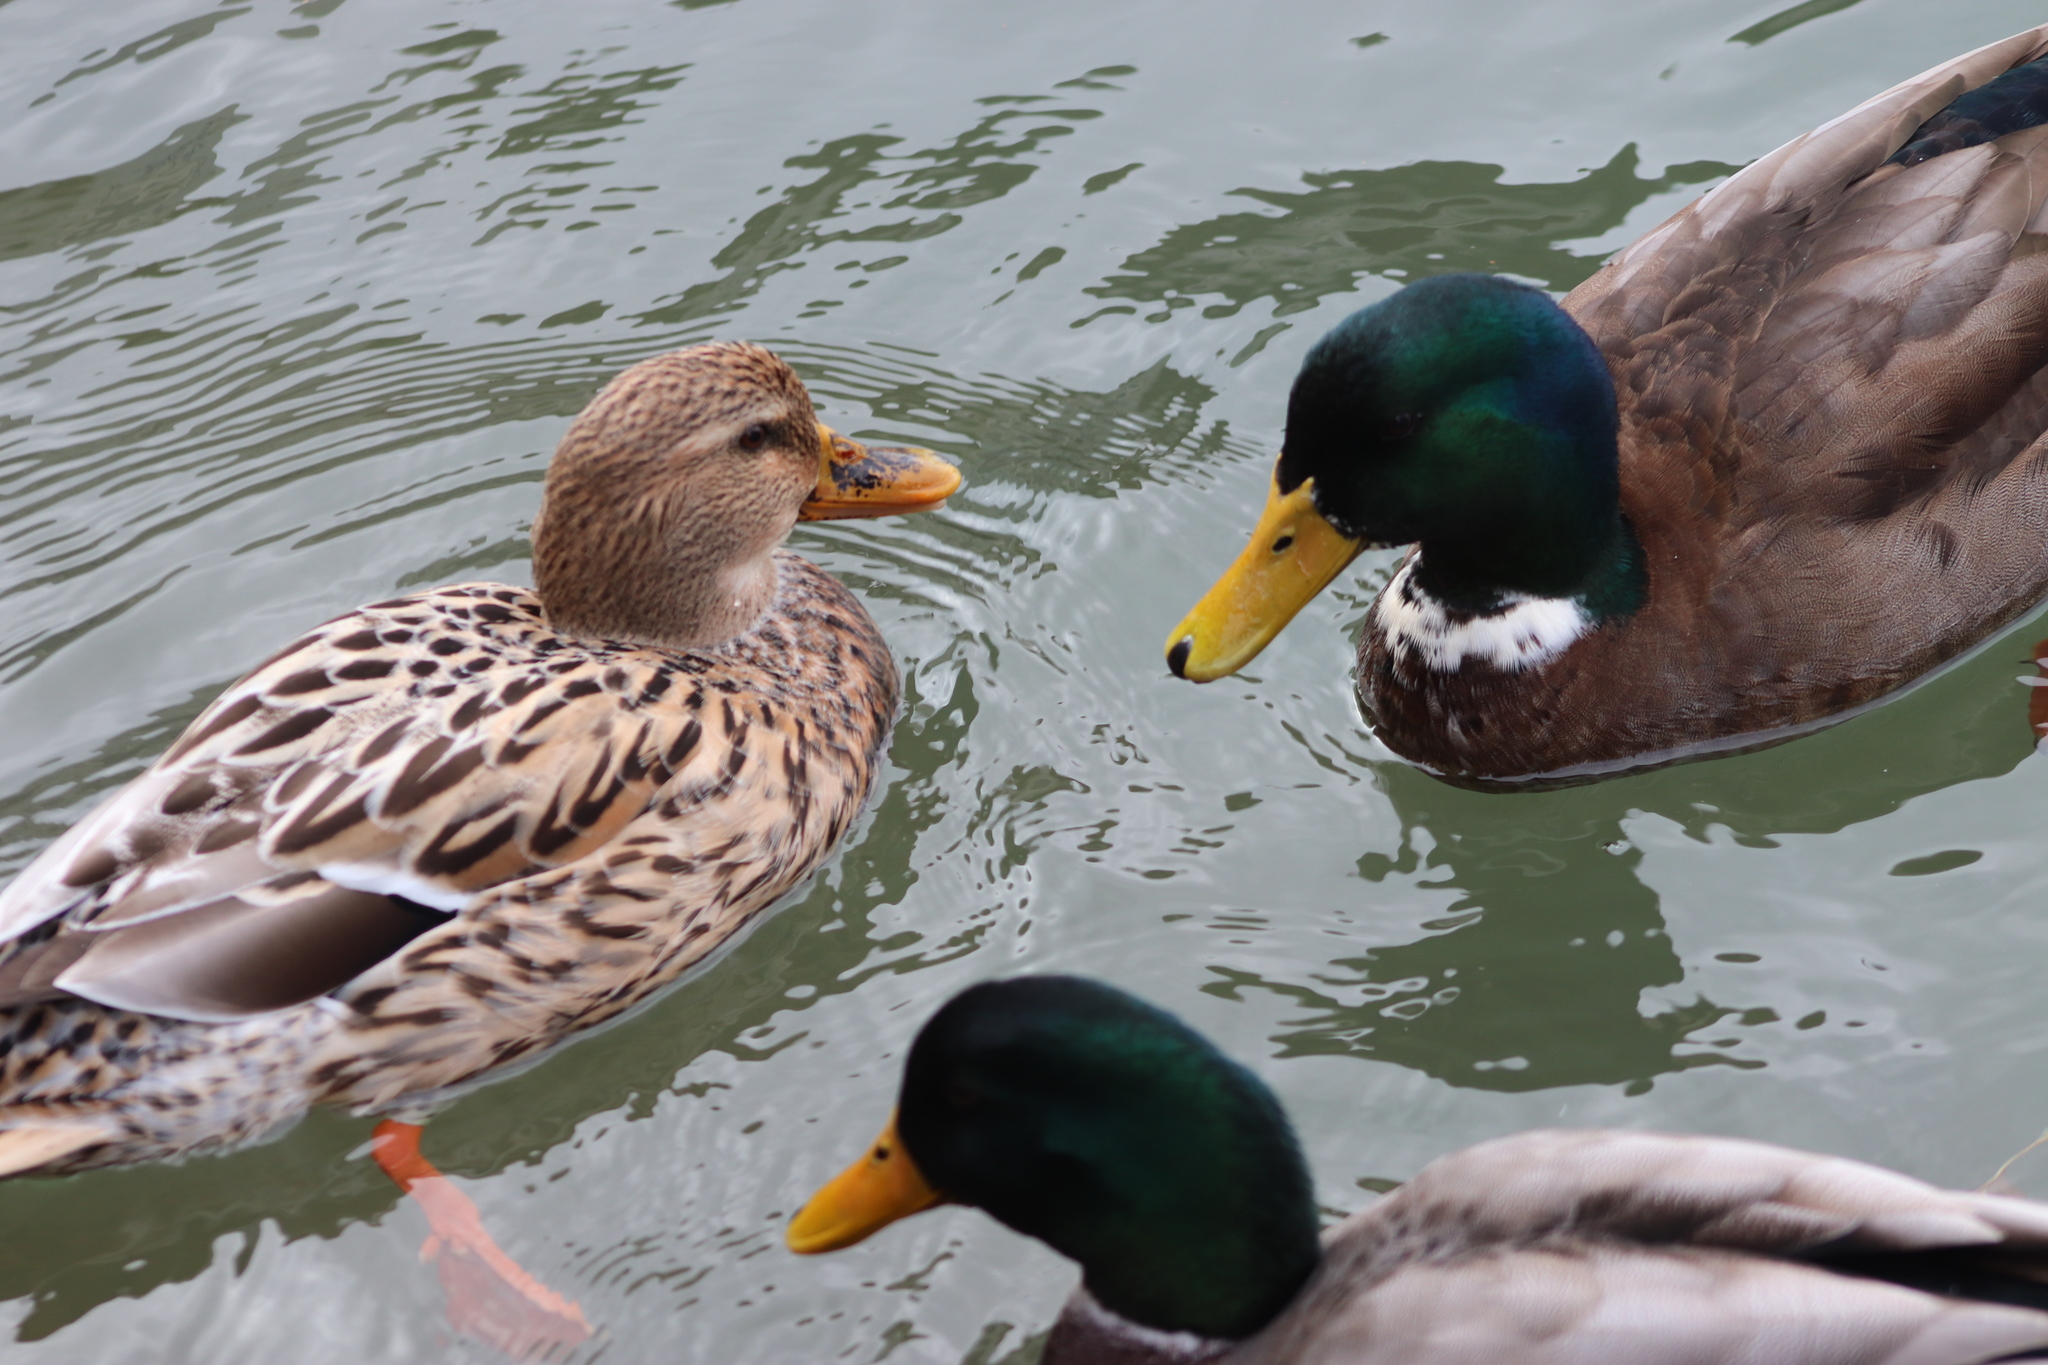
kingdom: Animalia
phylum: Chordata
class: Aves
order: Anseriformes
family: Anatidae
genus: Anas
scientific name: Anas platyrhynchos
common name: Mallard
